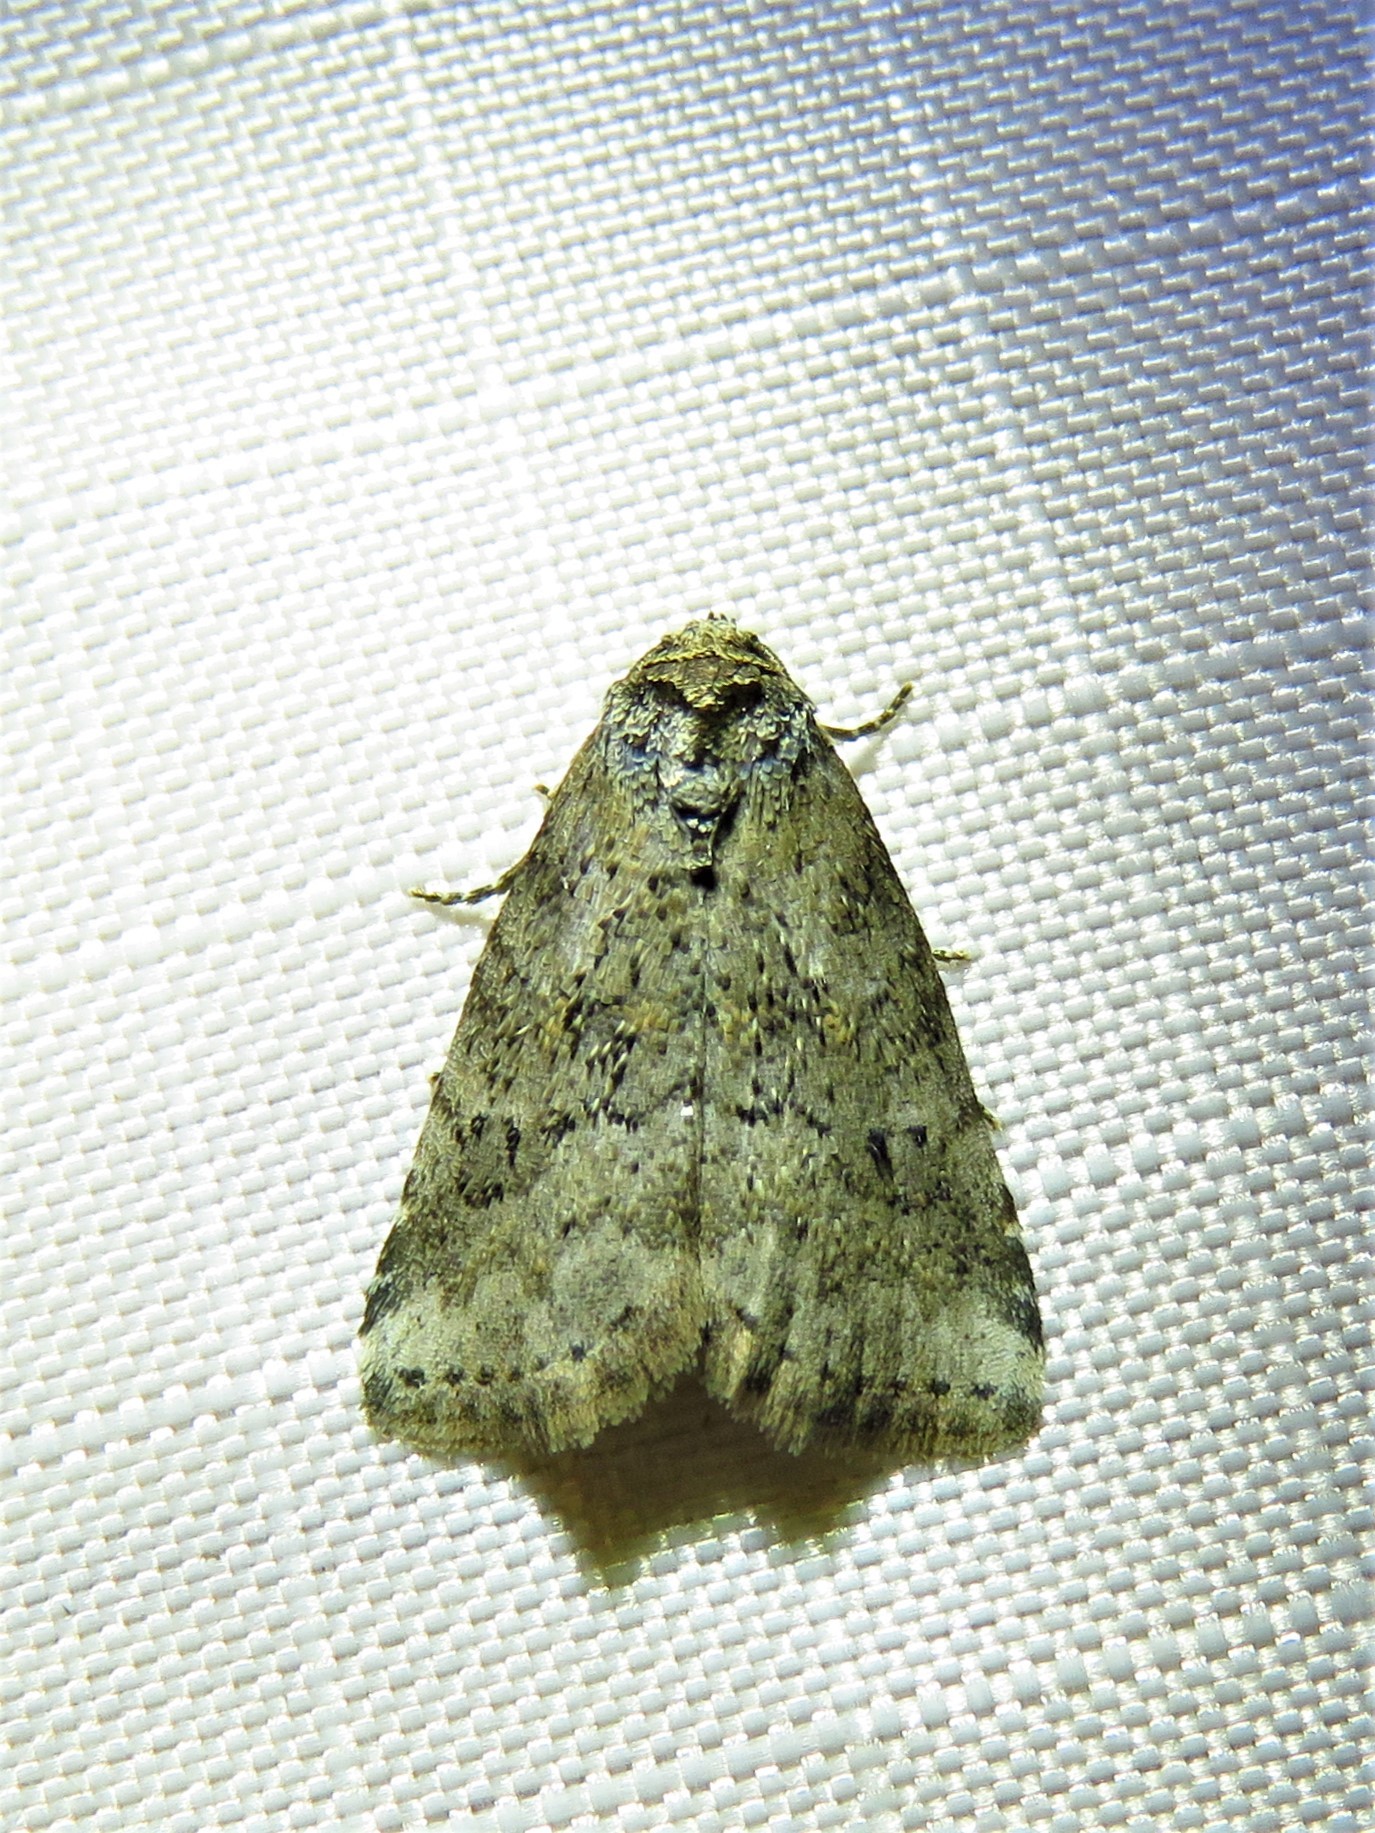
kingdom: Animalia
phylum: Arthropoda
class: Insecta
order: Lepidoptera
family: Erebidae
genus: Hyperstrotia
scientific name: Hyperstrotia nana
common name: White-lined graylet
